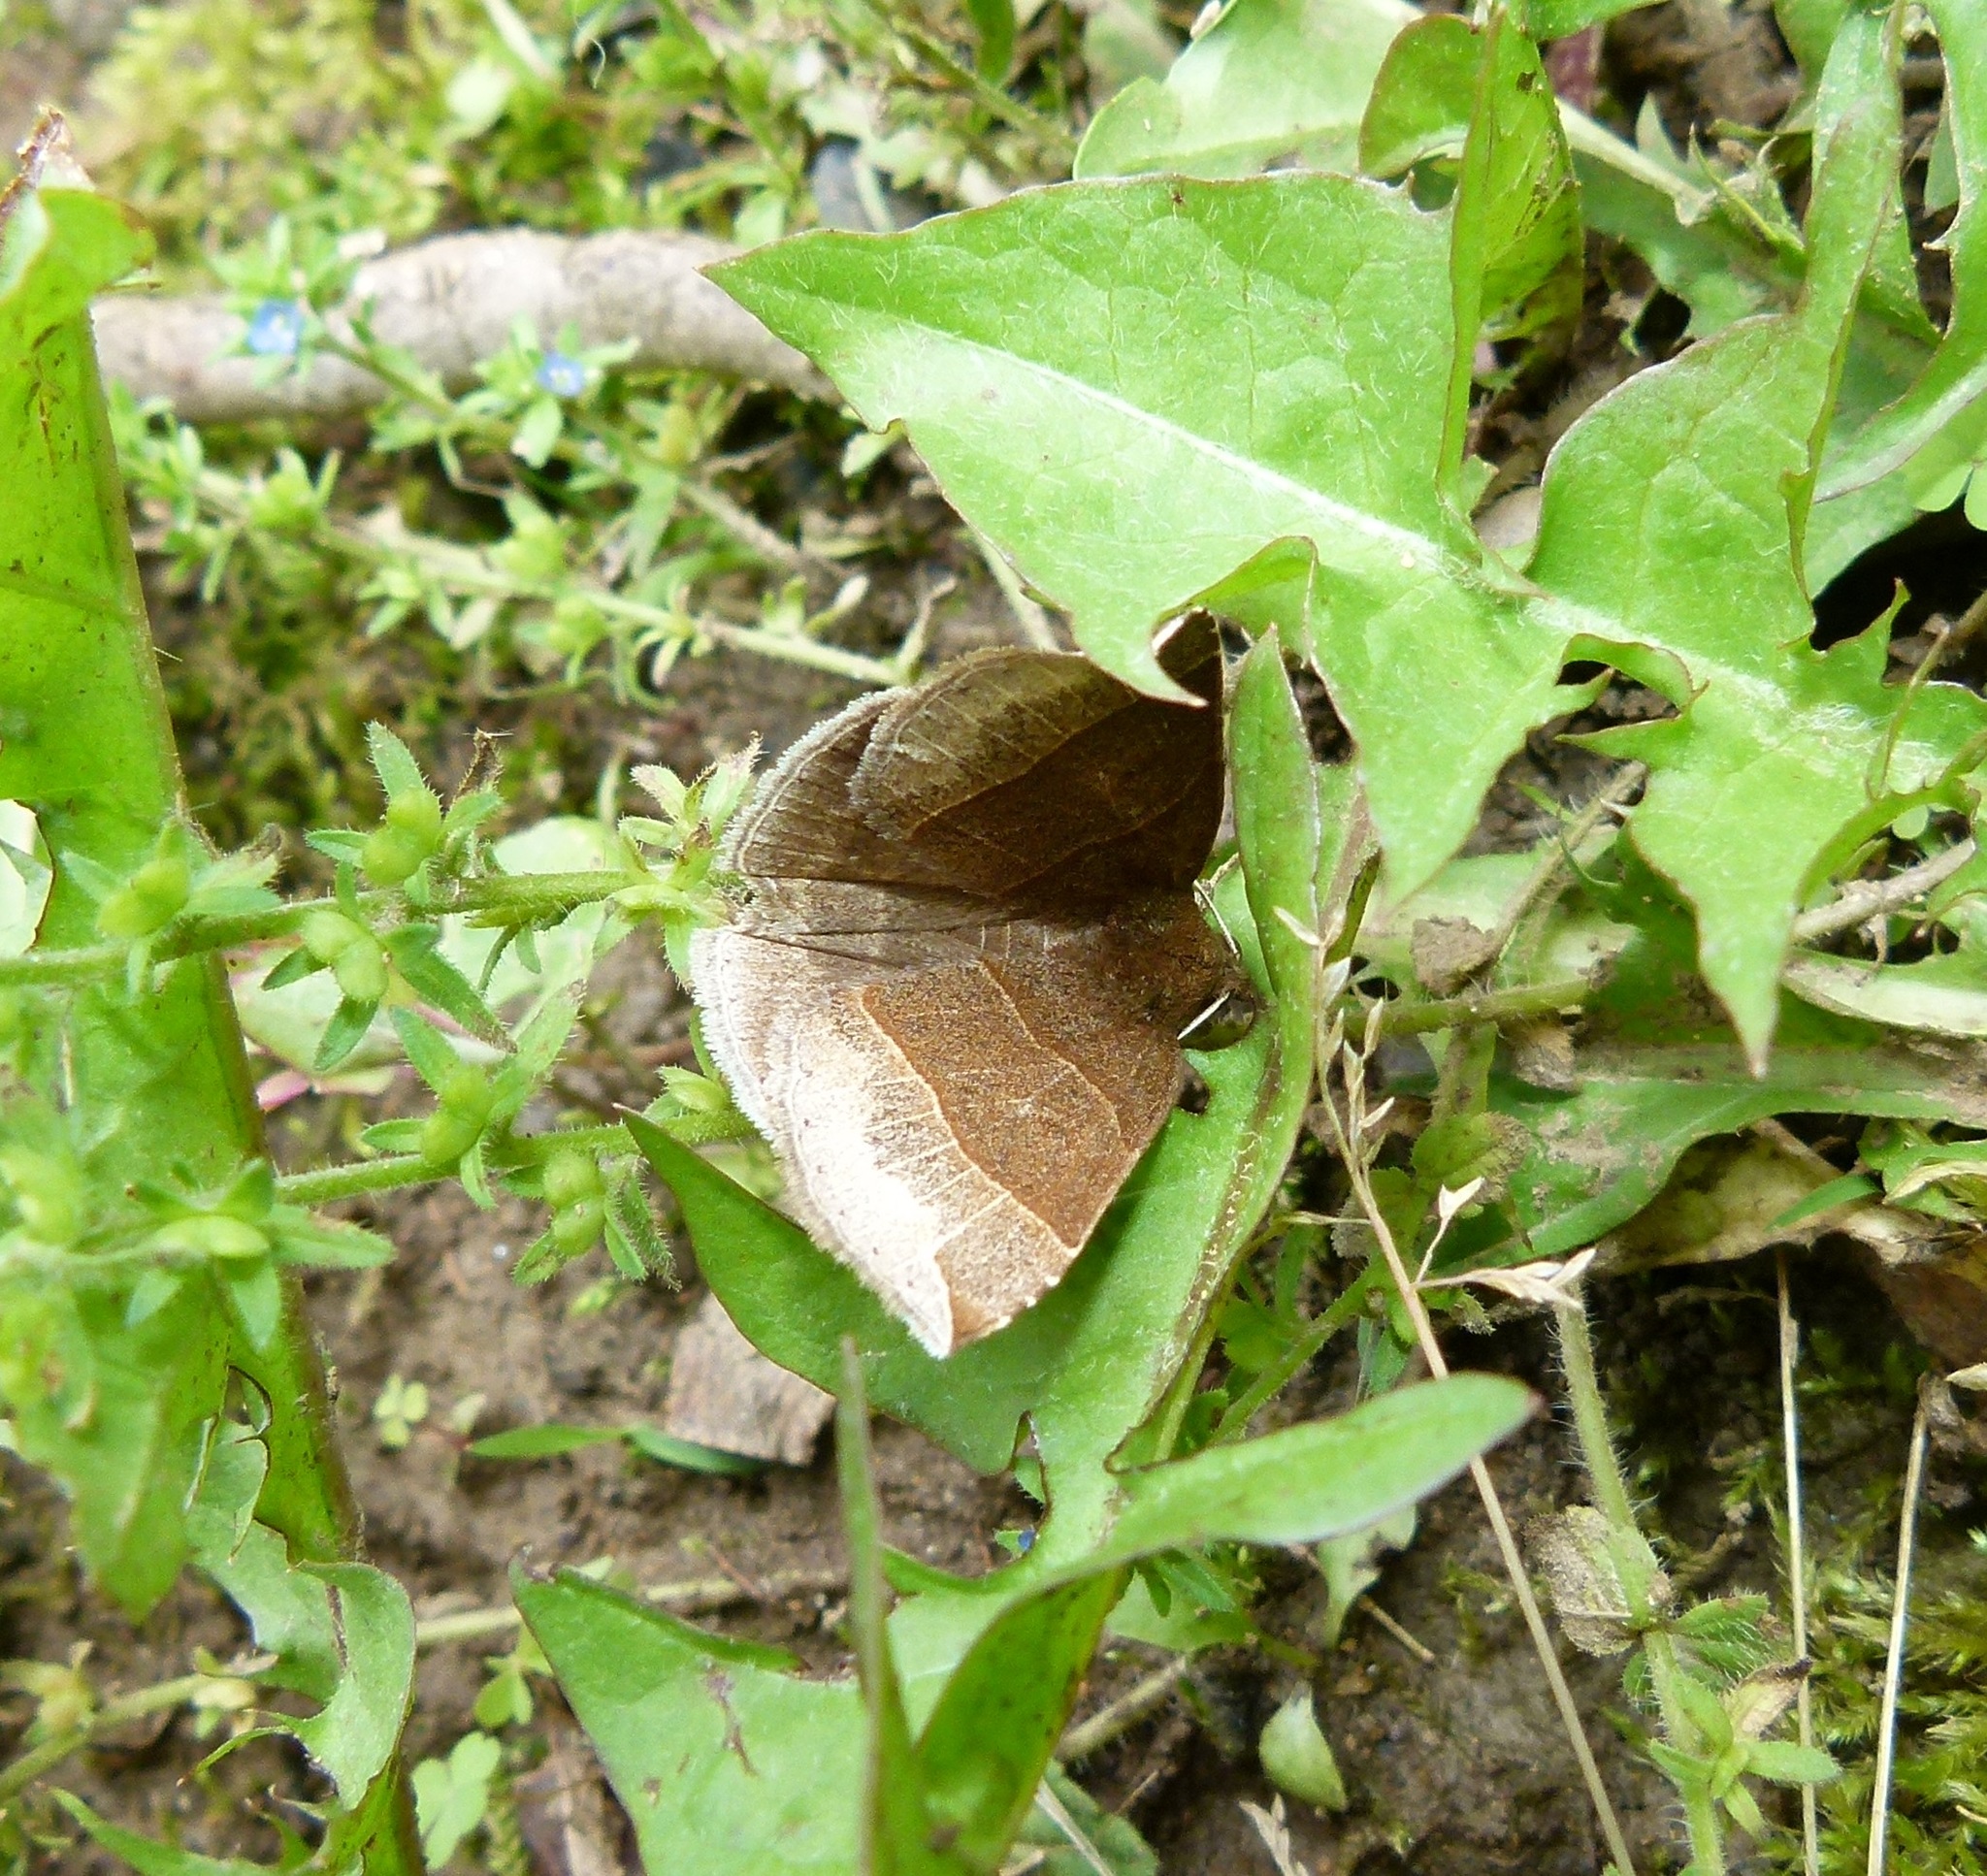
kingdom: Animalia
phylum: Arthropoda
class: Insecta
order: Lepidoptera
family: Erebidae
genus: Parallelia
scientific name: Parallelia bistriaris
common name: Maple looper moth
